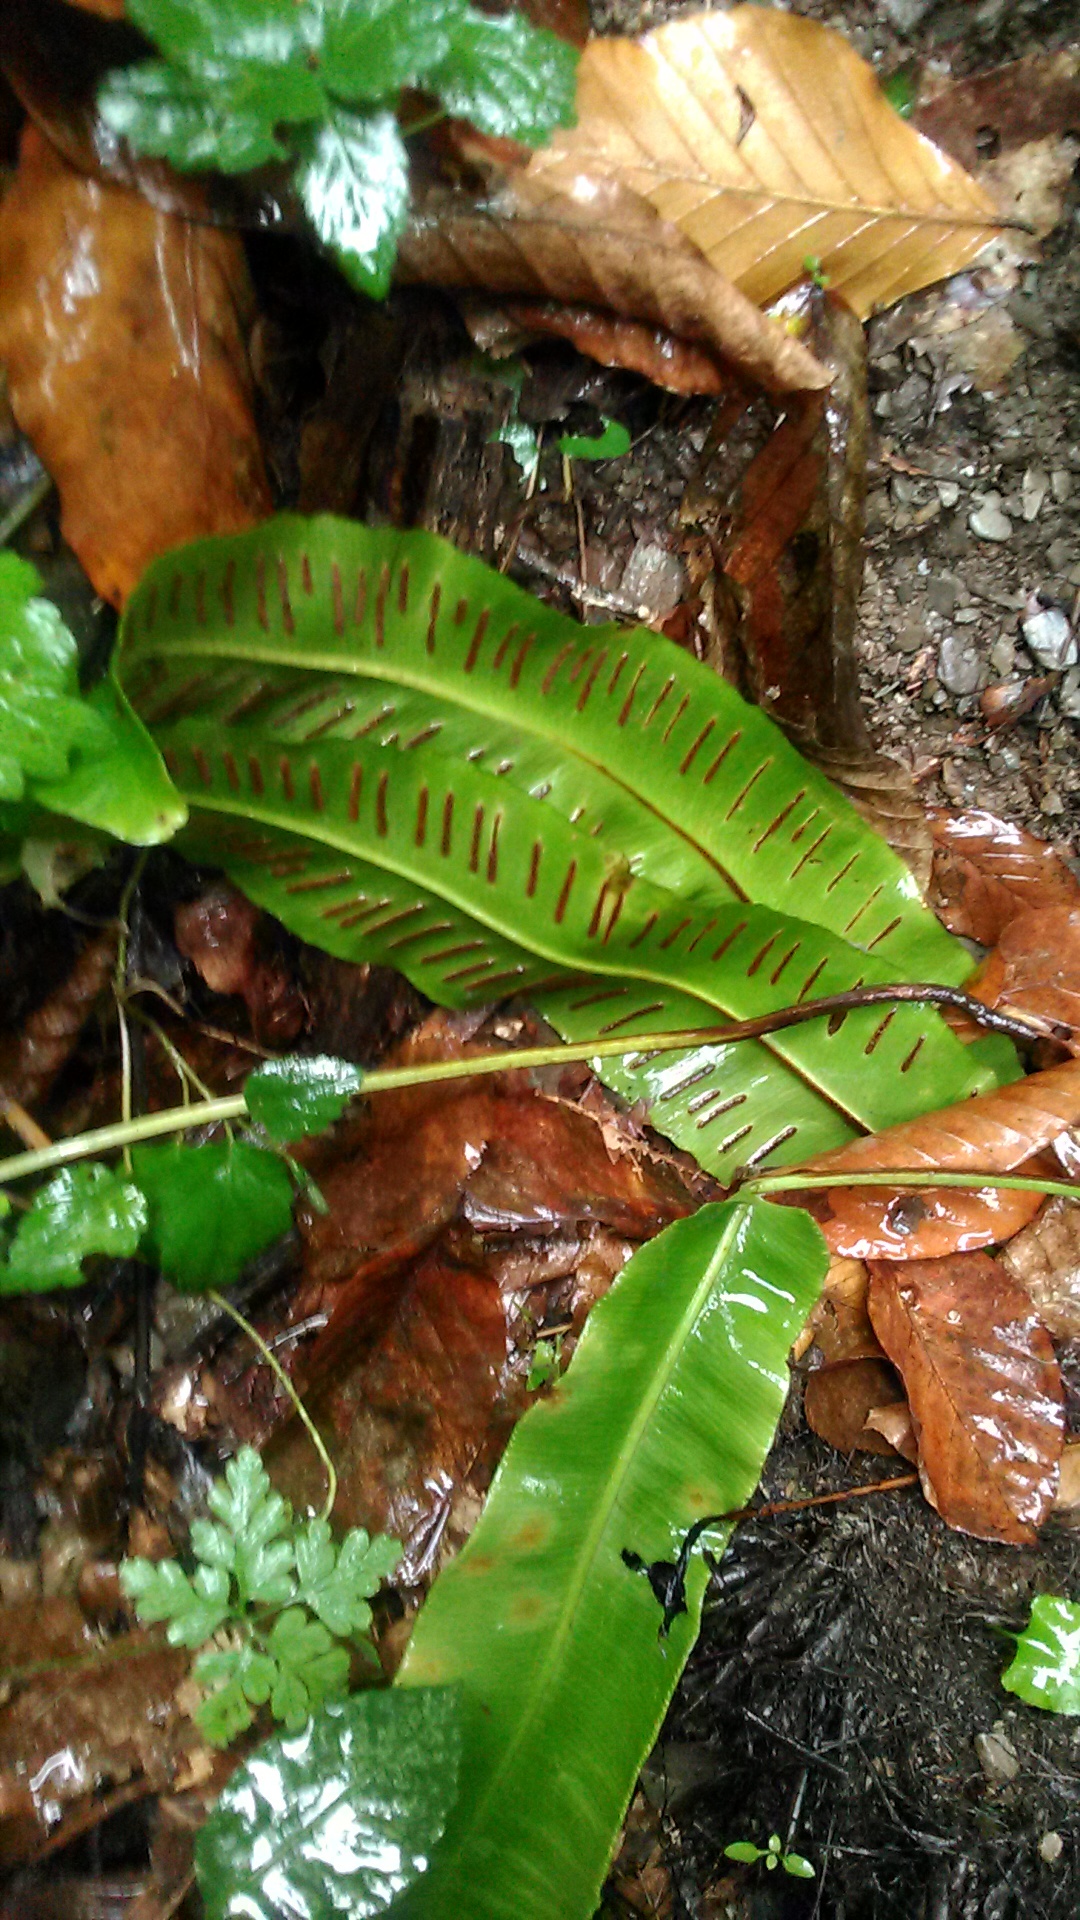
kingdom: Plantae
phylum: Tracheophyta
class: Polypodiopsida
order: Polypodiales
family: Aspleniaceae
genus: Asplenium
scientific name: Asplenium scolopendrium
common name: Hart's-tongue fern
